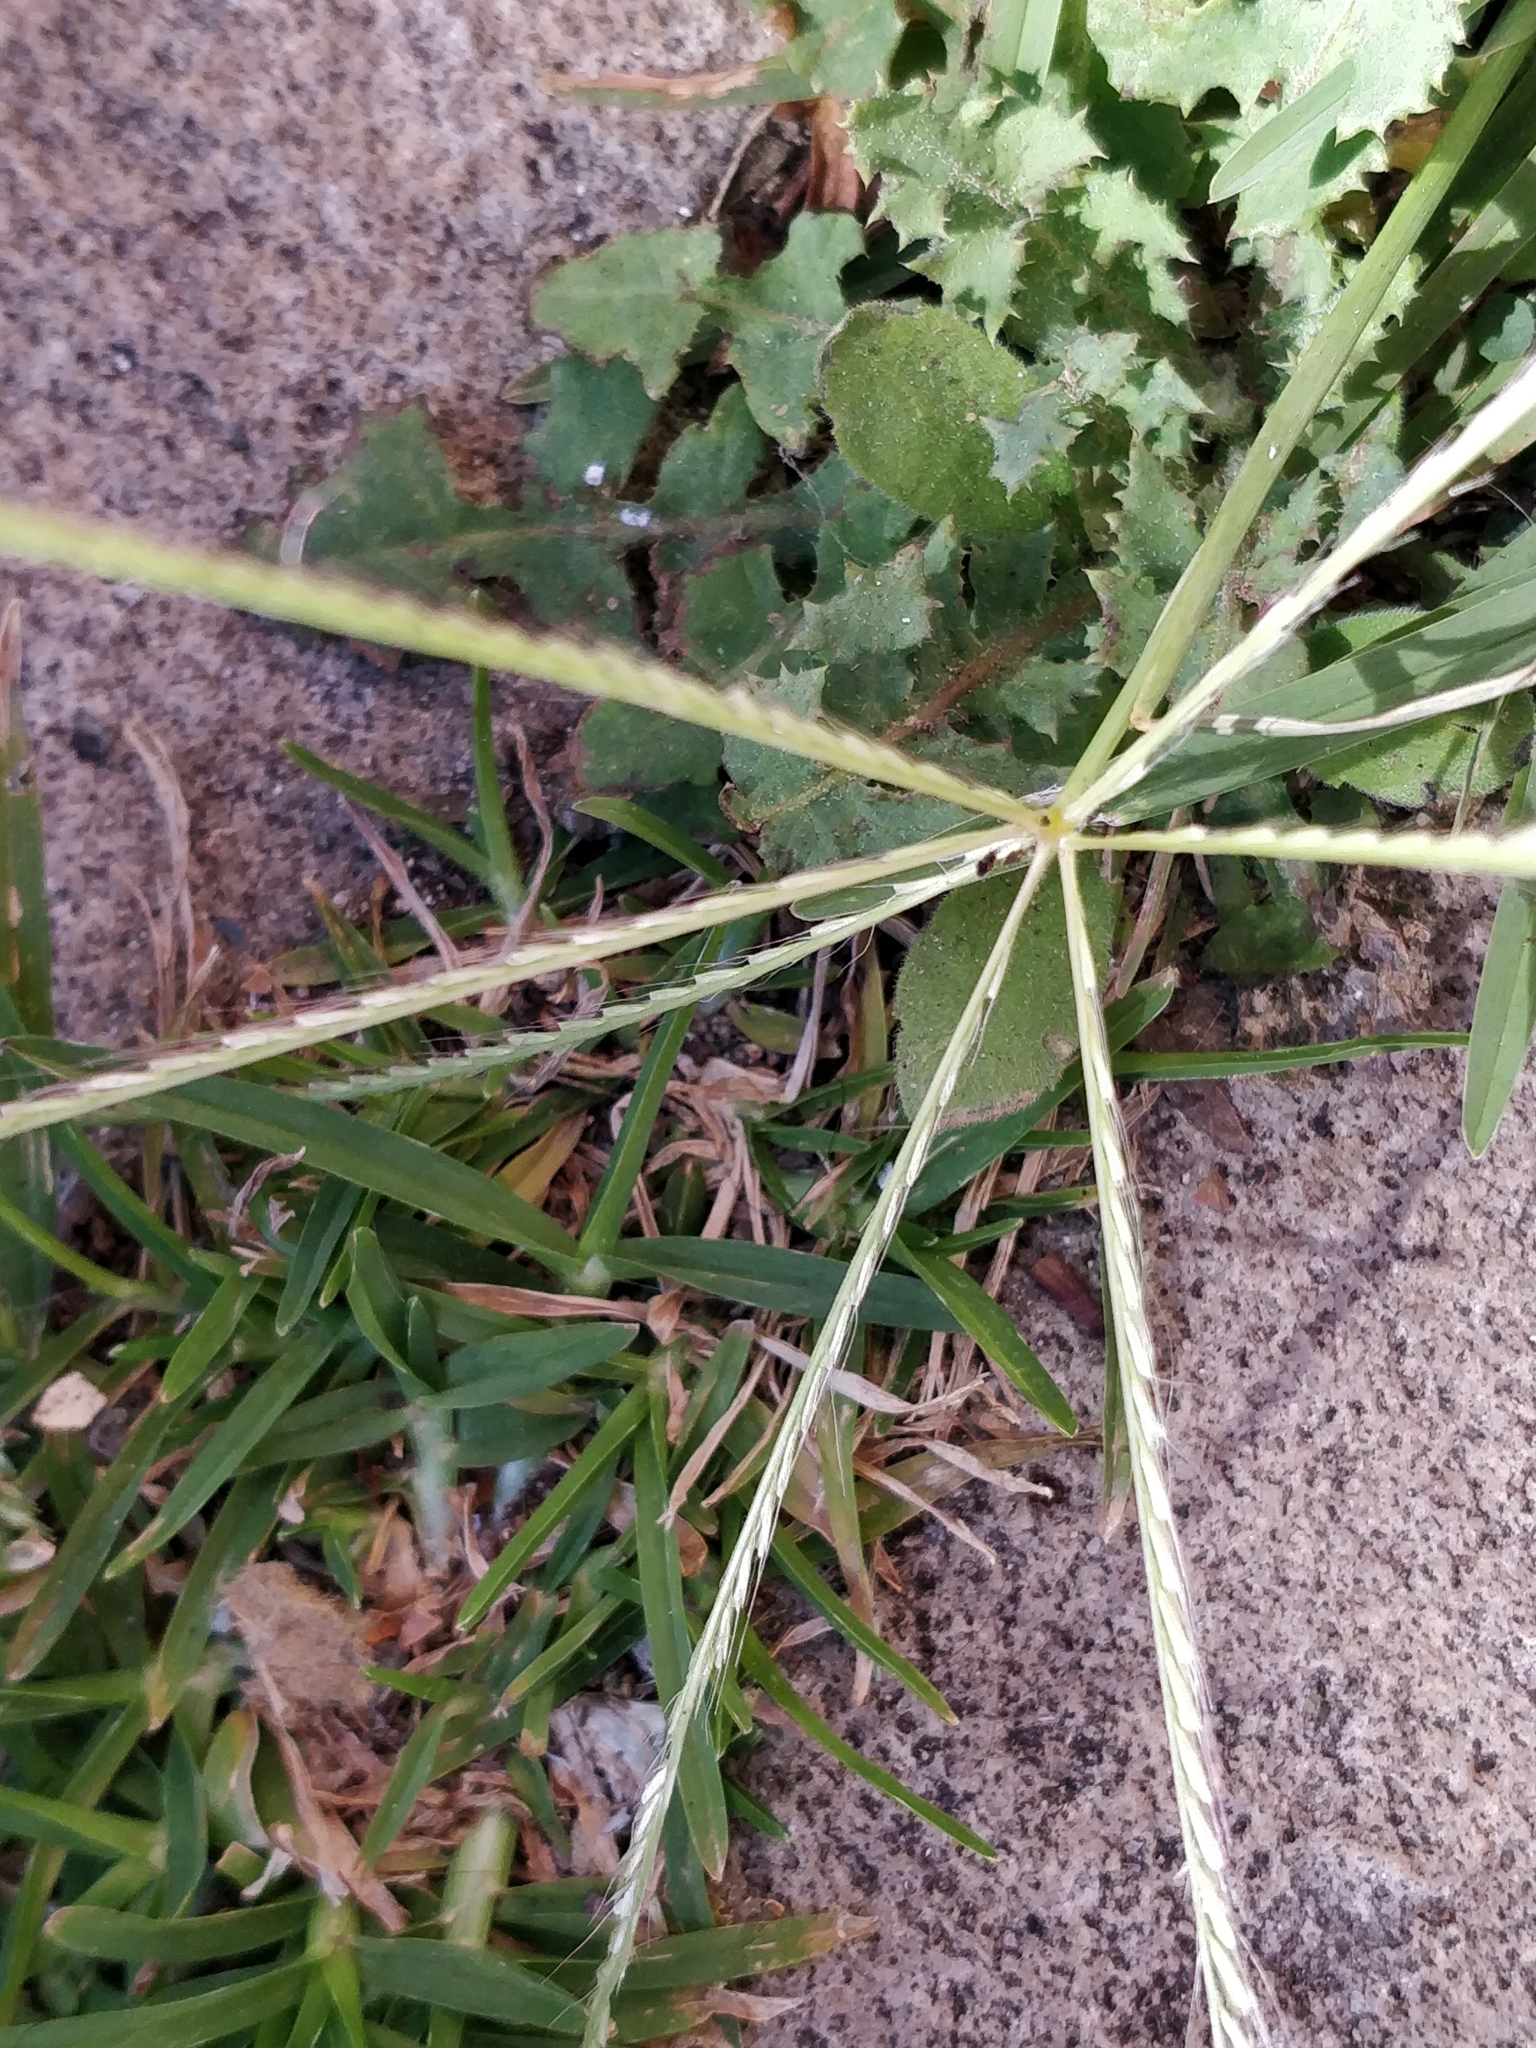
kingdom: Plantae
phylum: Tracheophyta
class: Liliopsida
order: Poales
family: Poaceae
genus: Chloris
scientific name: Chloris truncata
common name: Windmill-grass
